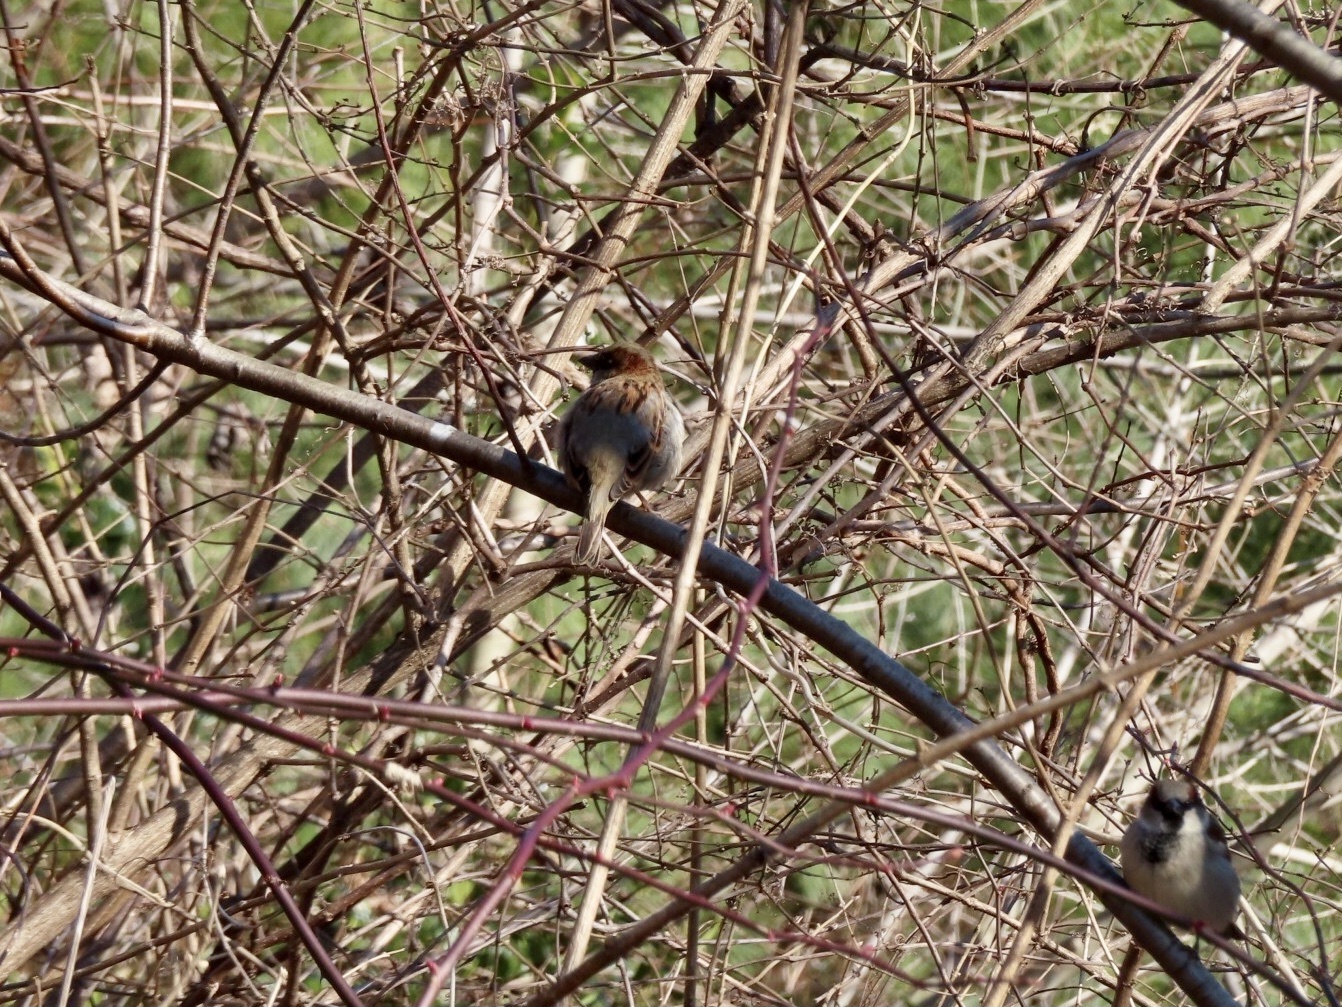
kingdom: Animalia
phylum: Chordata
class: Aves
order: Passeriformes
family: Passeridae
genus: Passer
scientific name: Passer domesticus
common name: House sparrow
